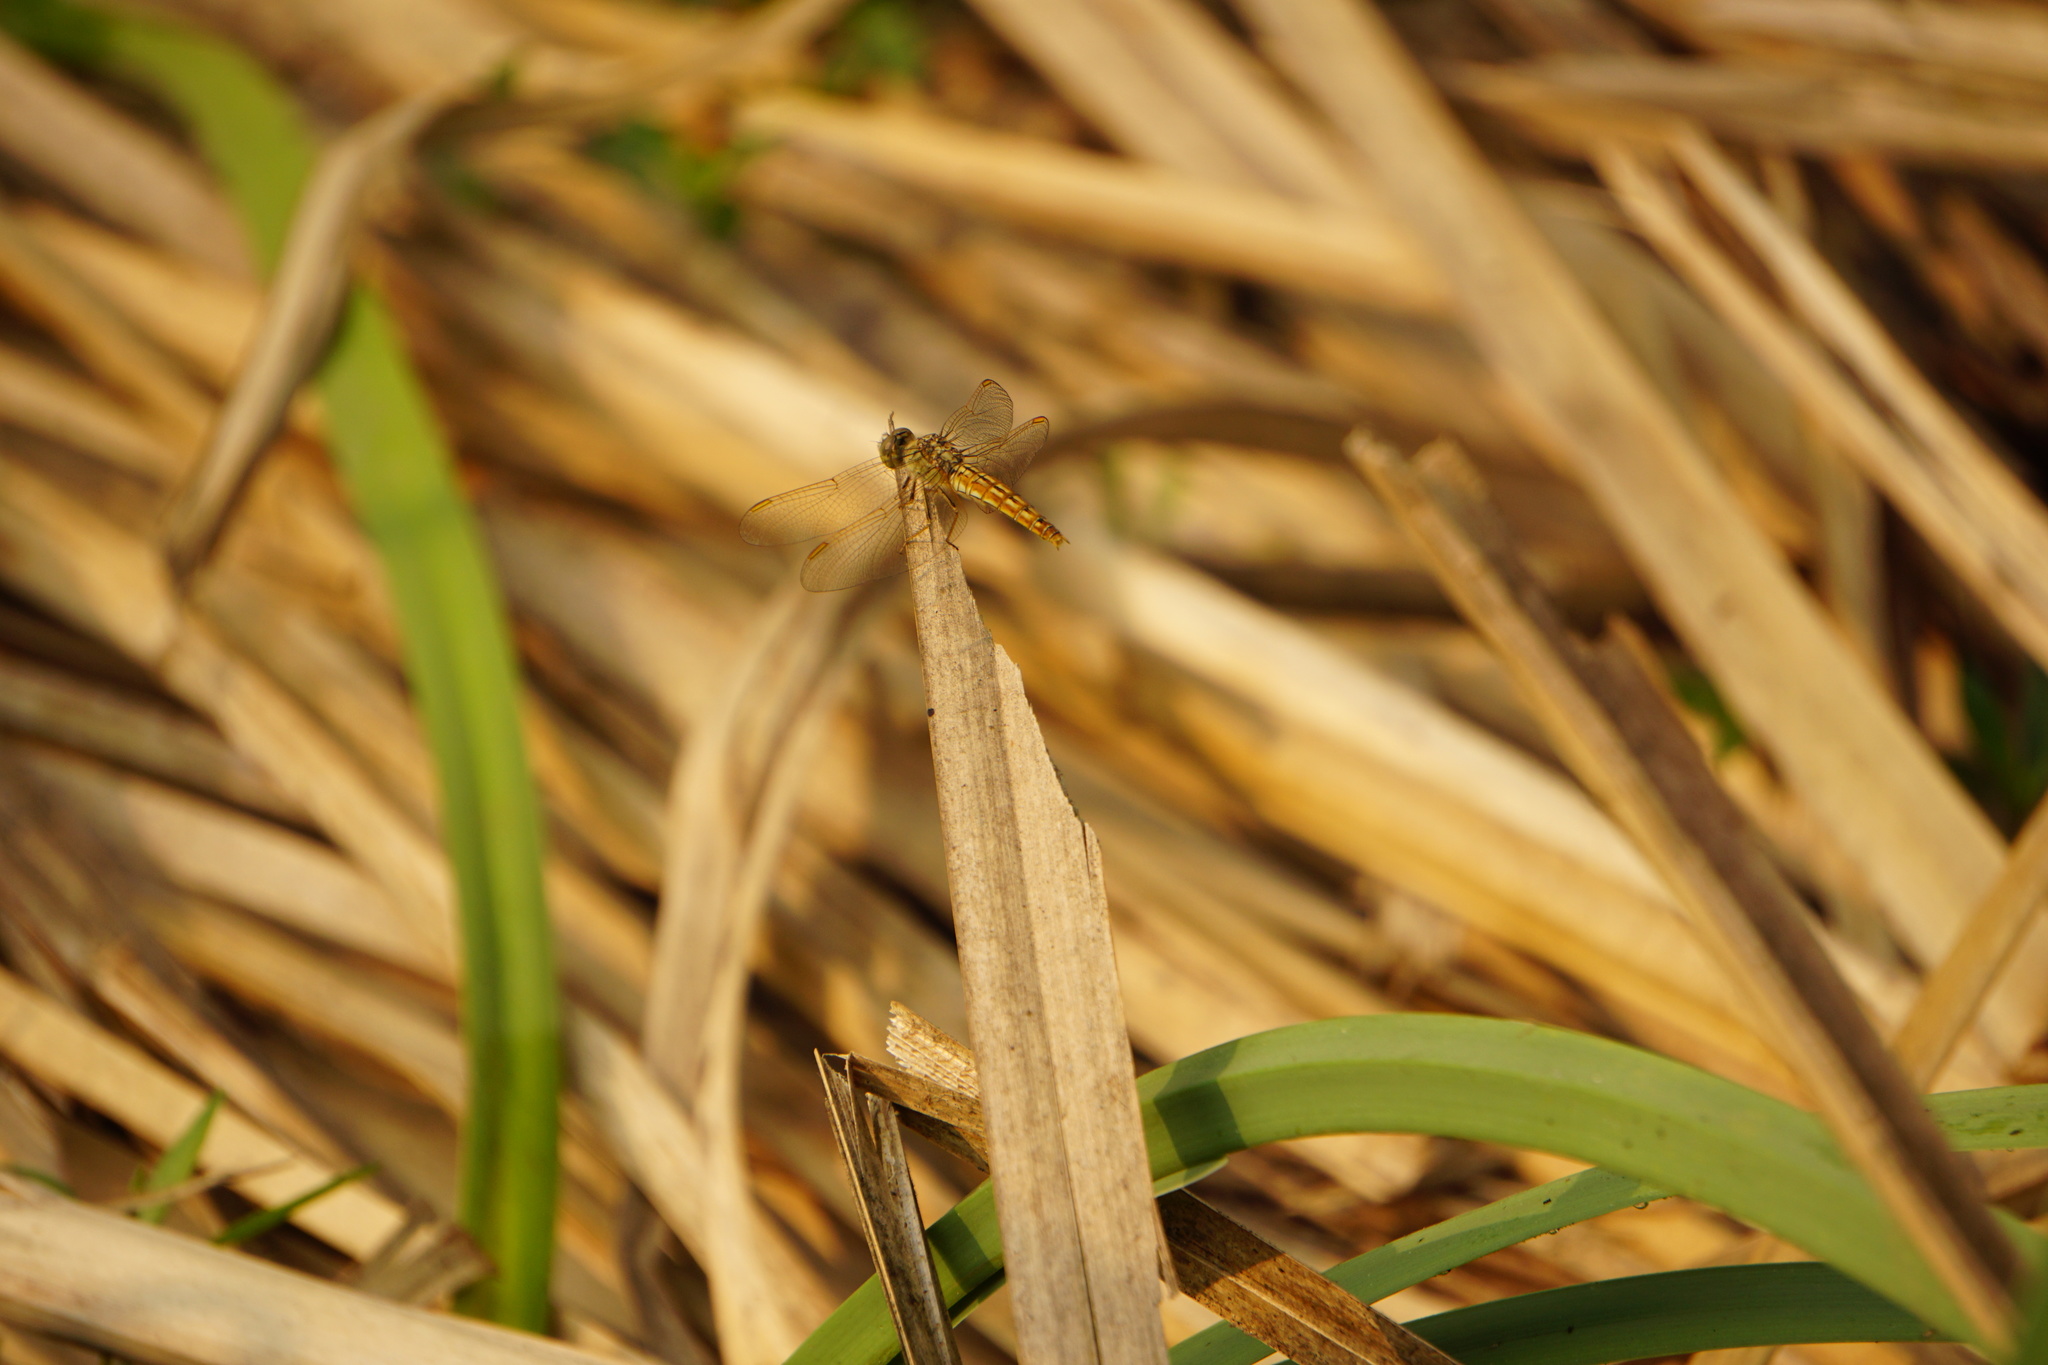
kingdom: Animalia
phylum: Arthropoda
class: Insecta
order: Odonata
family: Libellulidae
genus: Brachythemis
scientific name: Brachythemis contaminata
